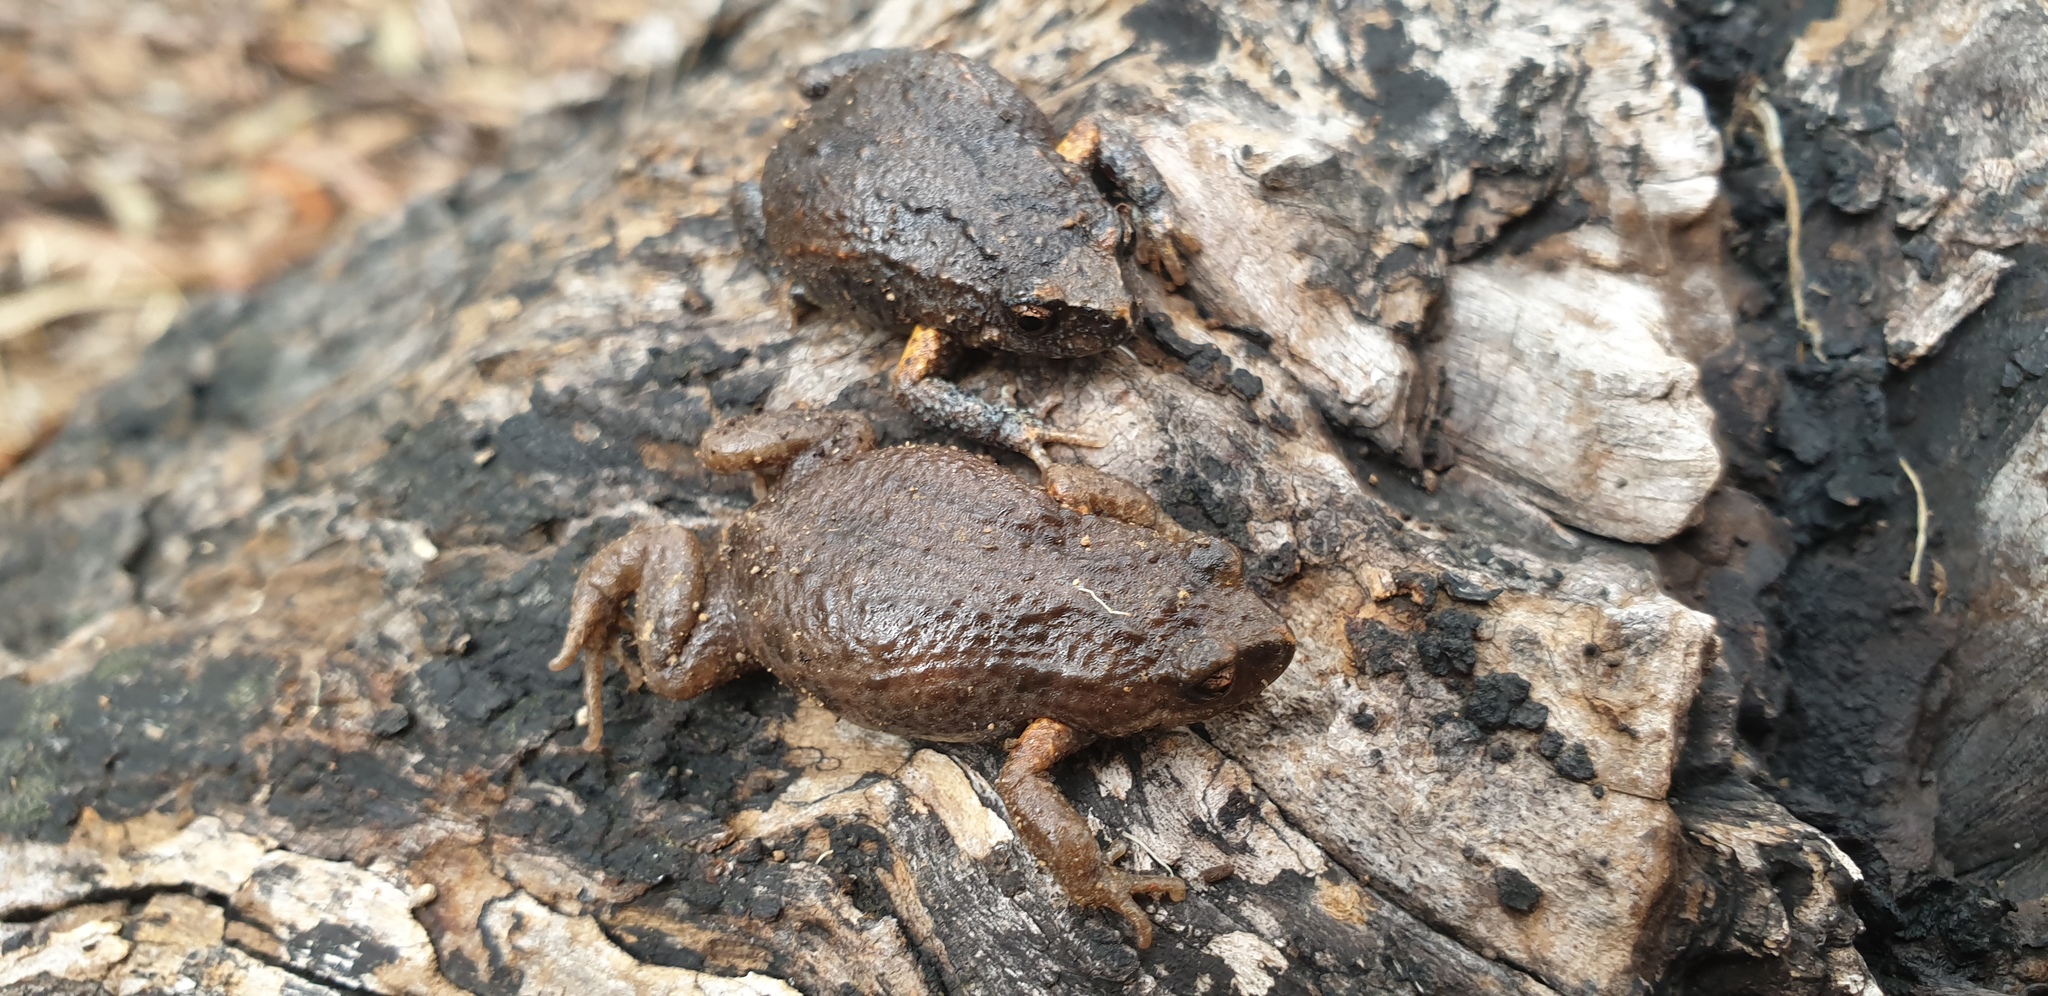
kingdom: Animalia
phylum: Chordata
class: Amphibia
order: Anura
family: Myobatrachidae
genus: Pseudophryne
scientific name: Pseudophryne bibronii
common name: Bibron’s toadlet
